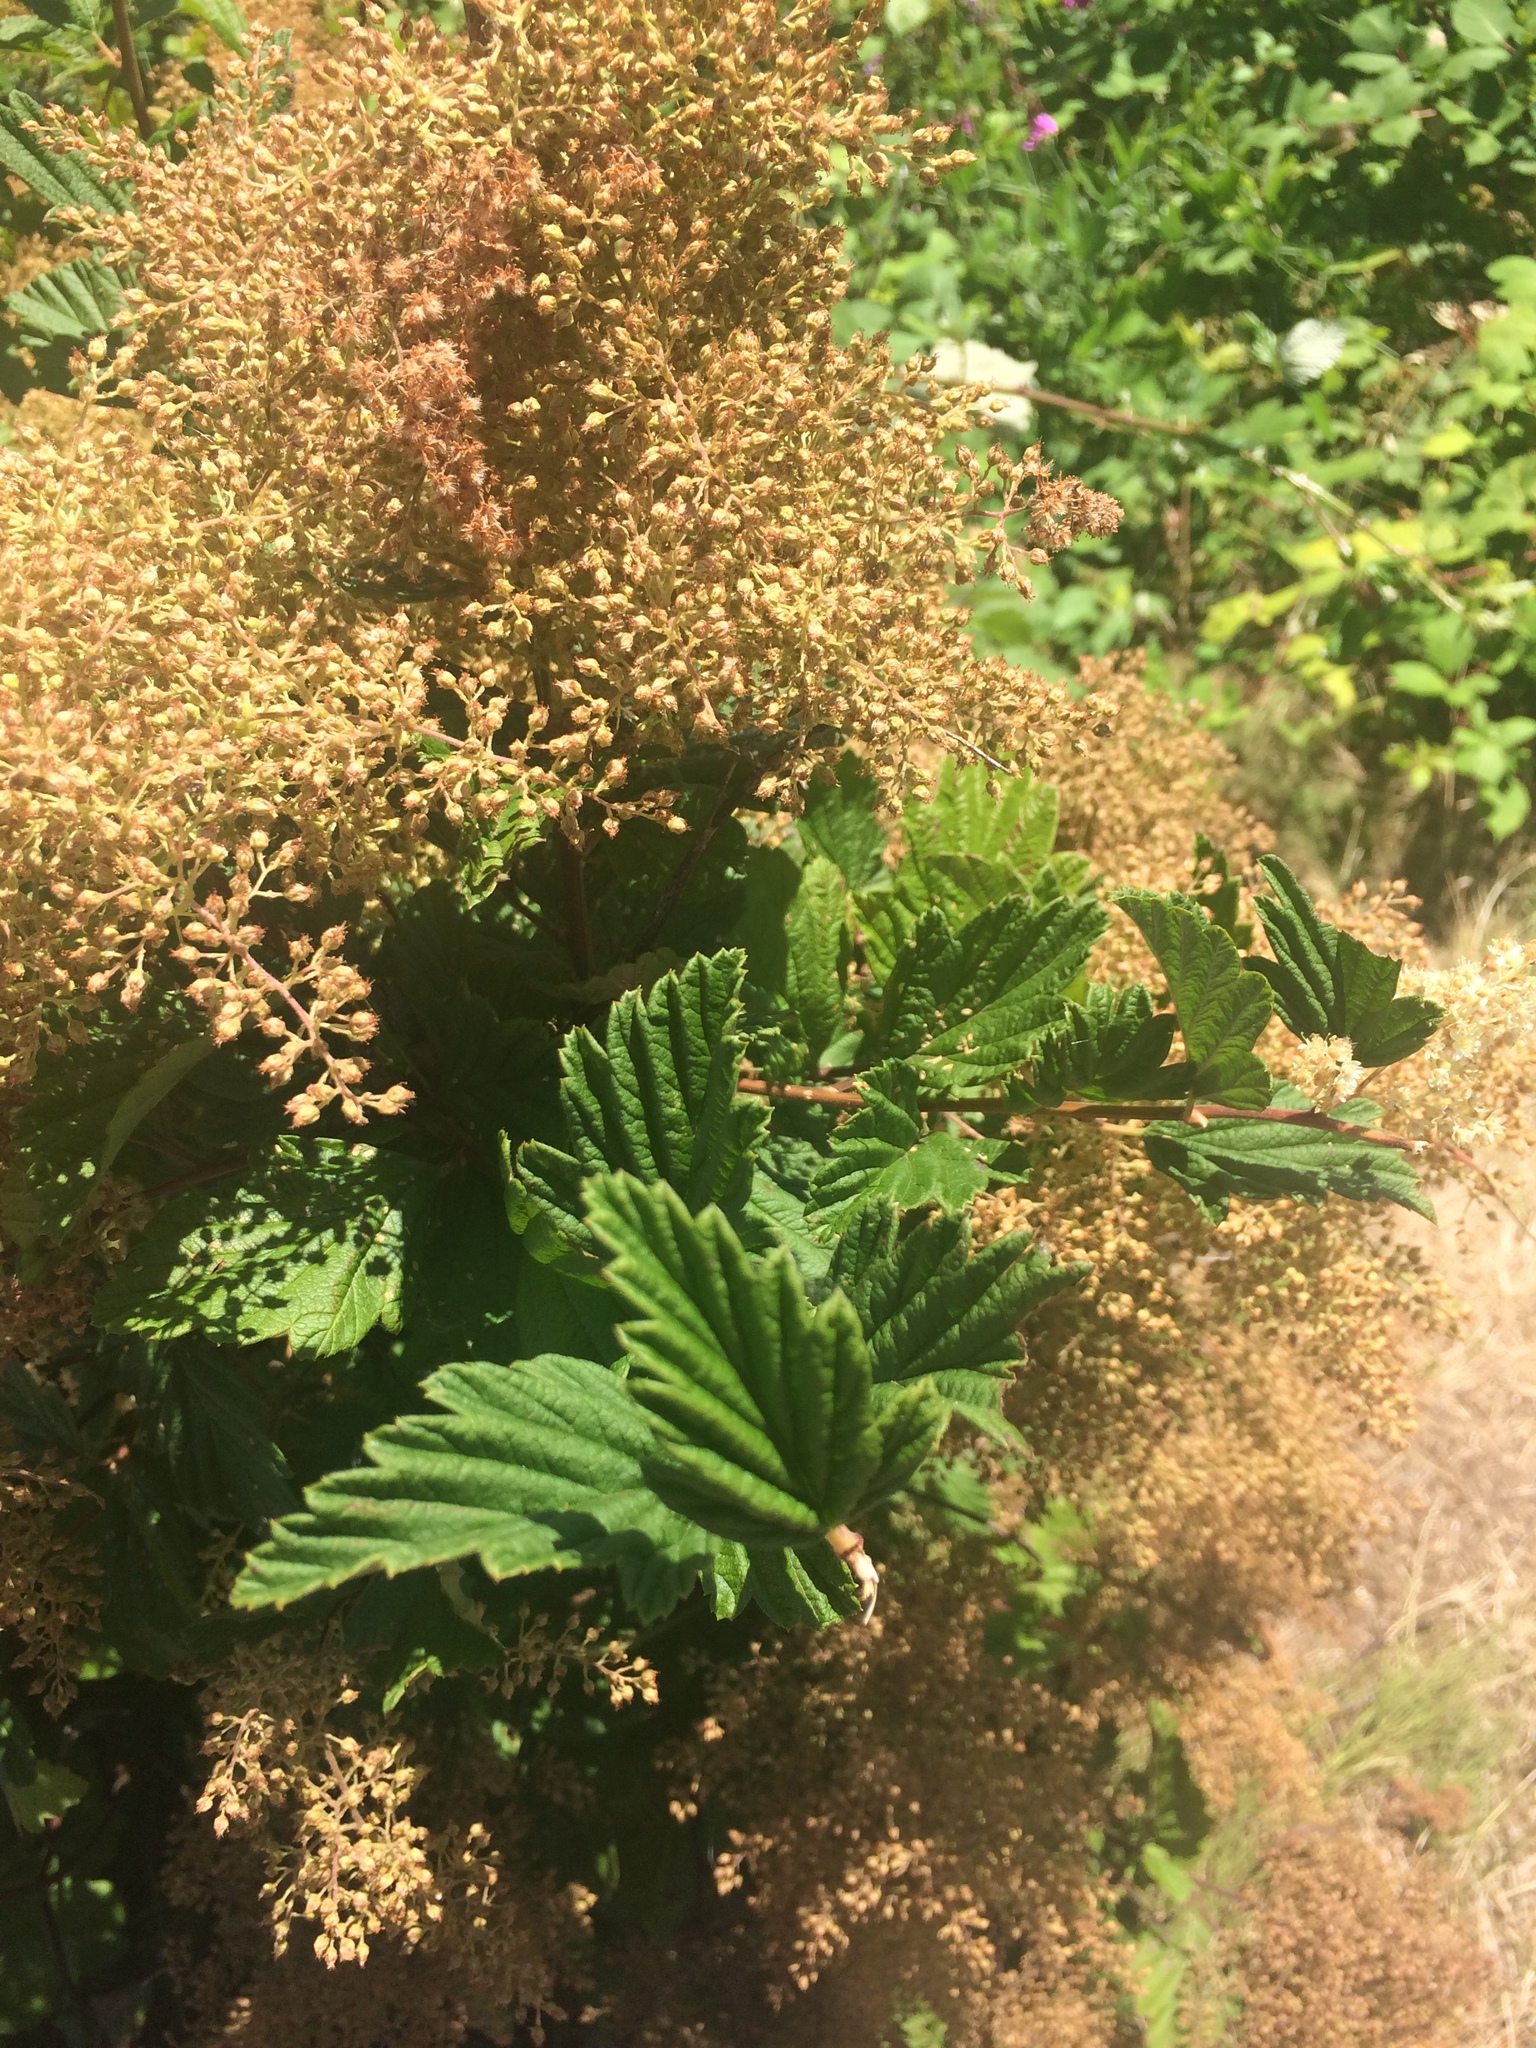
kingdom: Plantae
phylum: Tracheophyta
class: Magnoliopsida
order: Rosales
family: Rosaceae
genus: Holodiscus
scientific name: Holodiscus discolor
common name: Oceanspray
